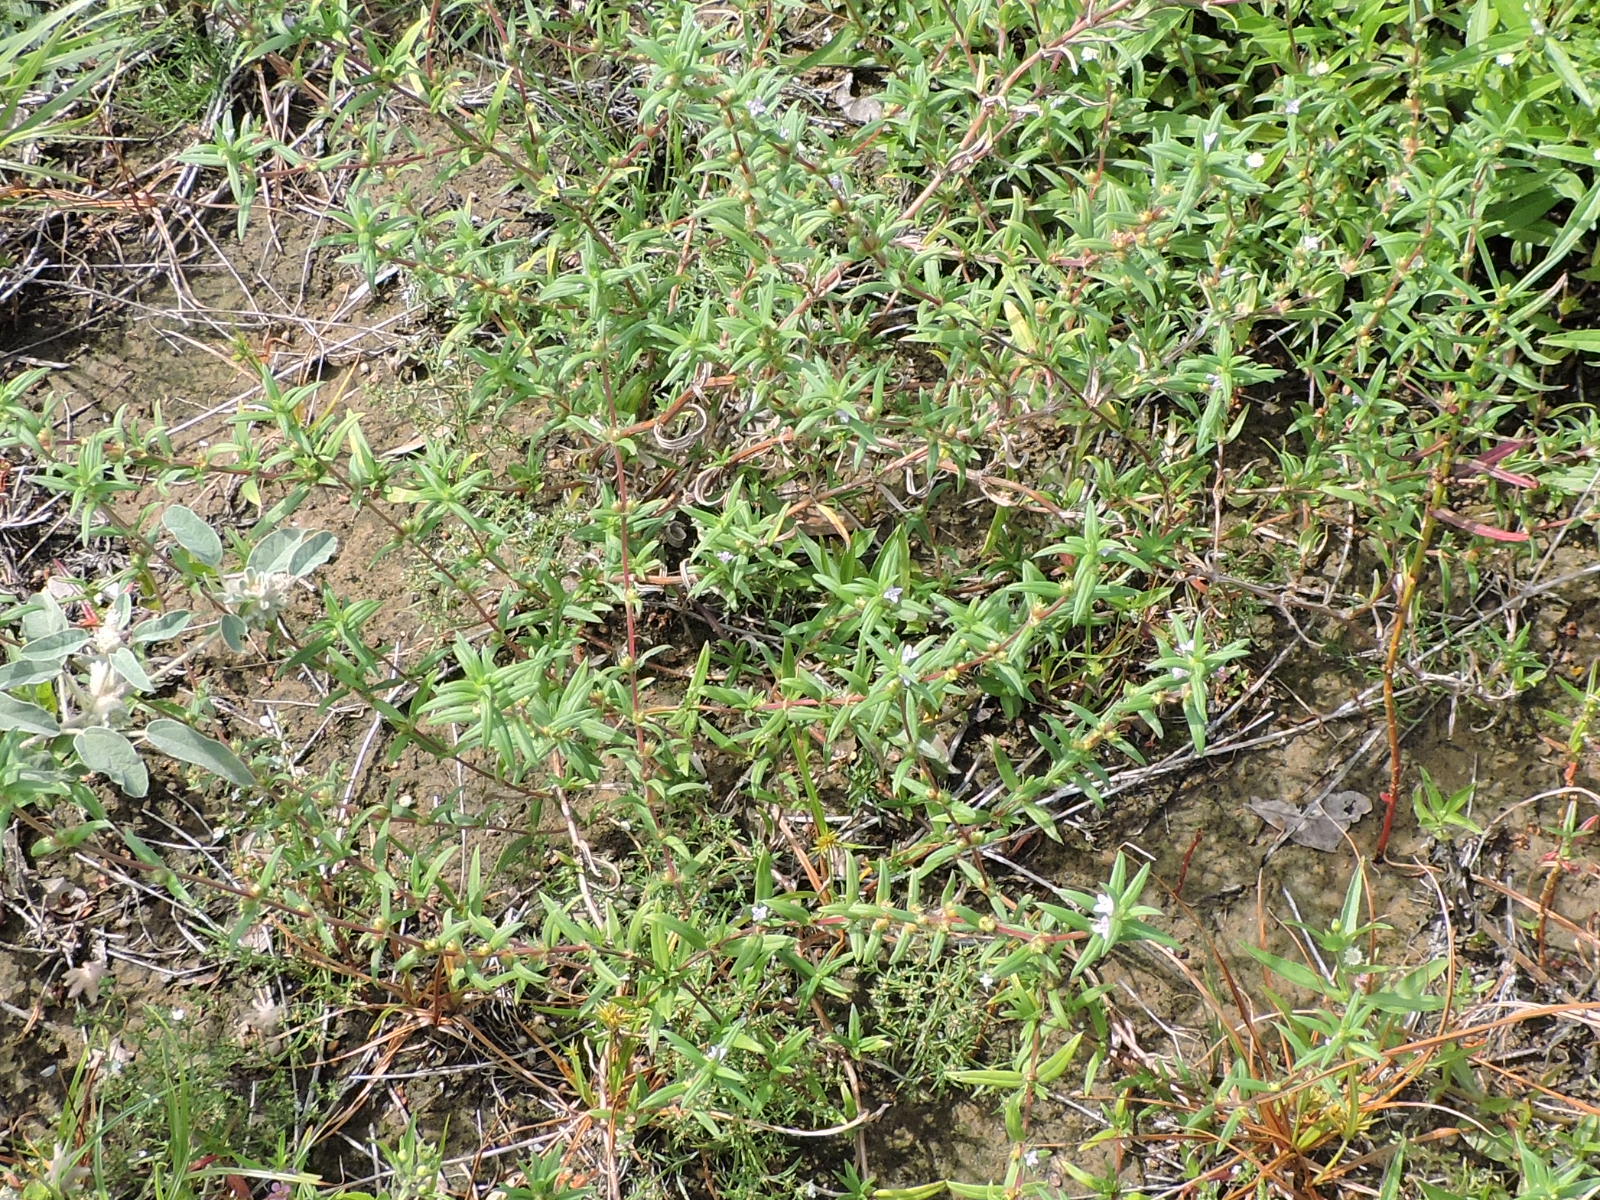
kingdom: Plantae
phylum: Tracheophyta
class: Magnoliopsida
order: Gentianales
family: Rubiaceae
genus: Hexasepalum
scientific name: Hexasepalum teres
